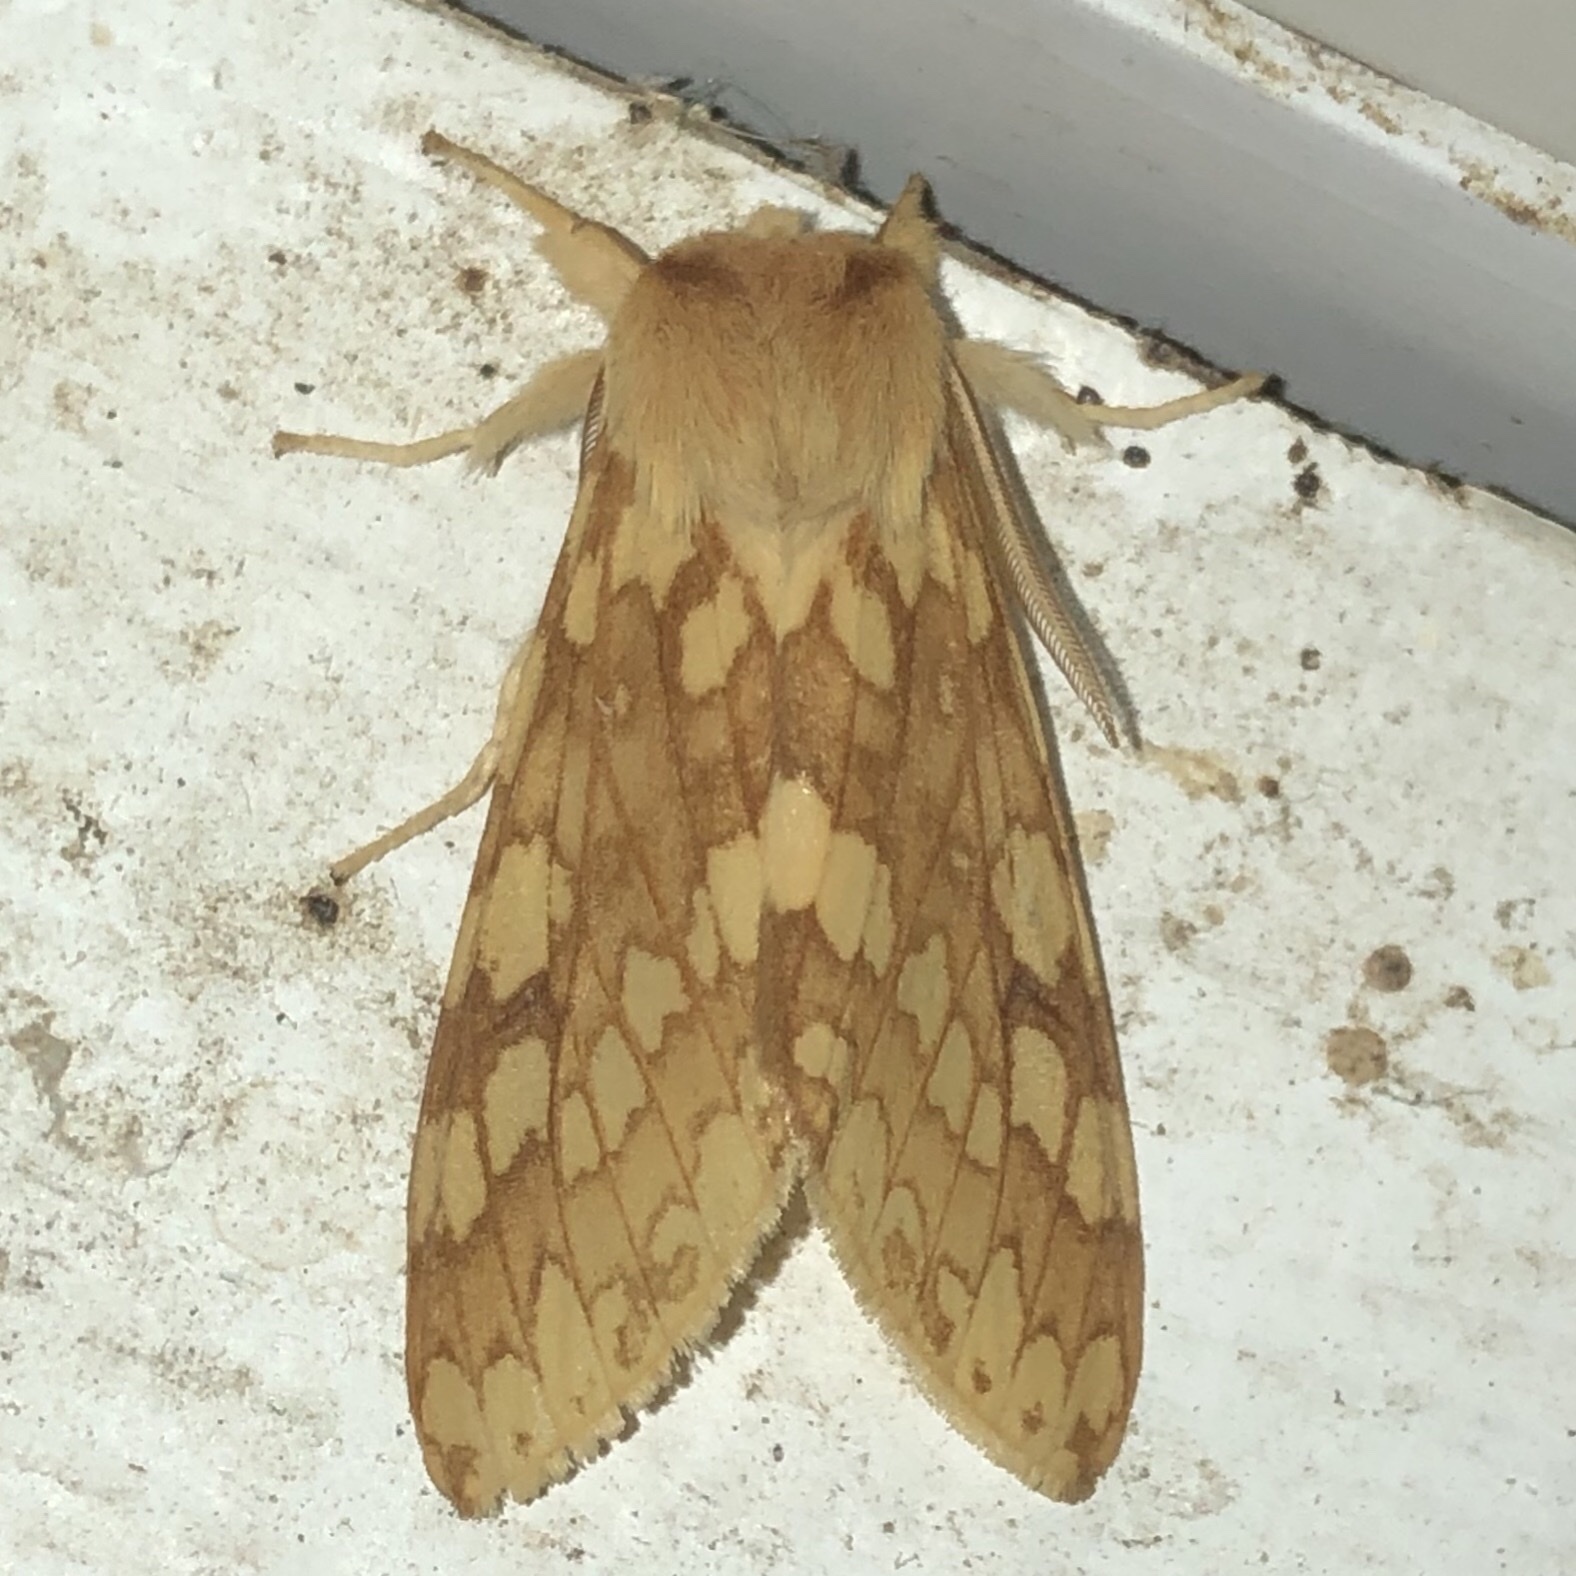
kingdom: Animalia
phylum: Arthropoda
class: Insecta
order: Lepidoptera
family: Erebidae
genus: Lophocampa
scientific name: Lophocampa maculata
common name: Spotted tussock moth
